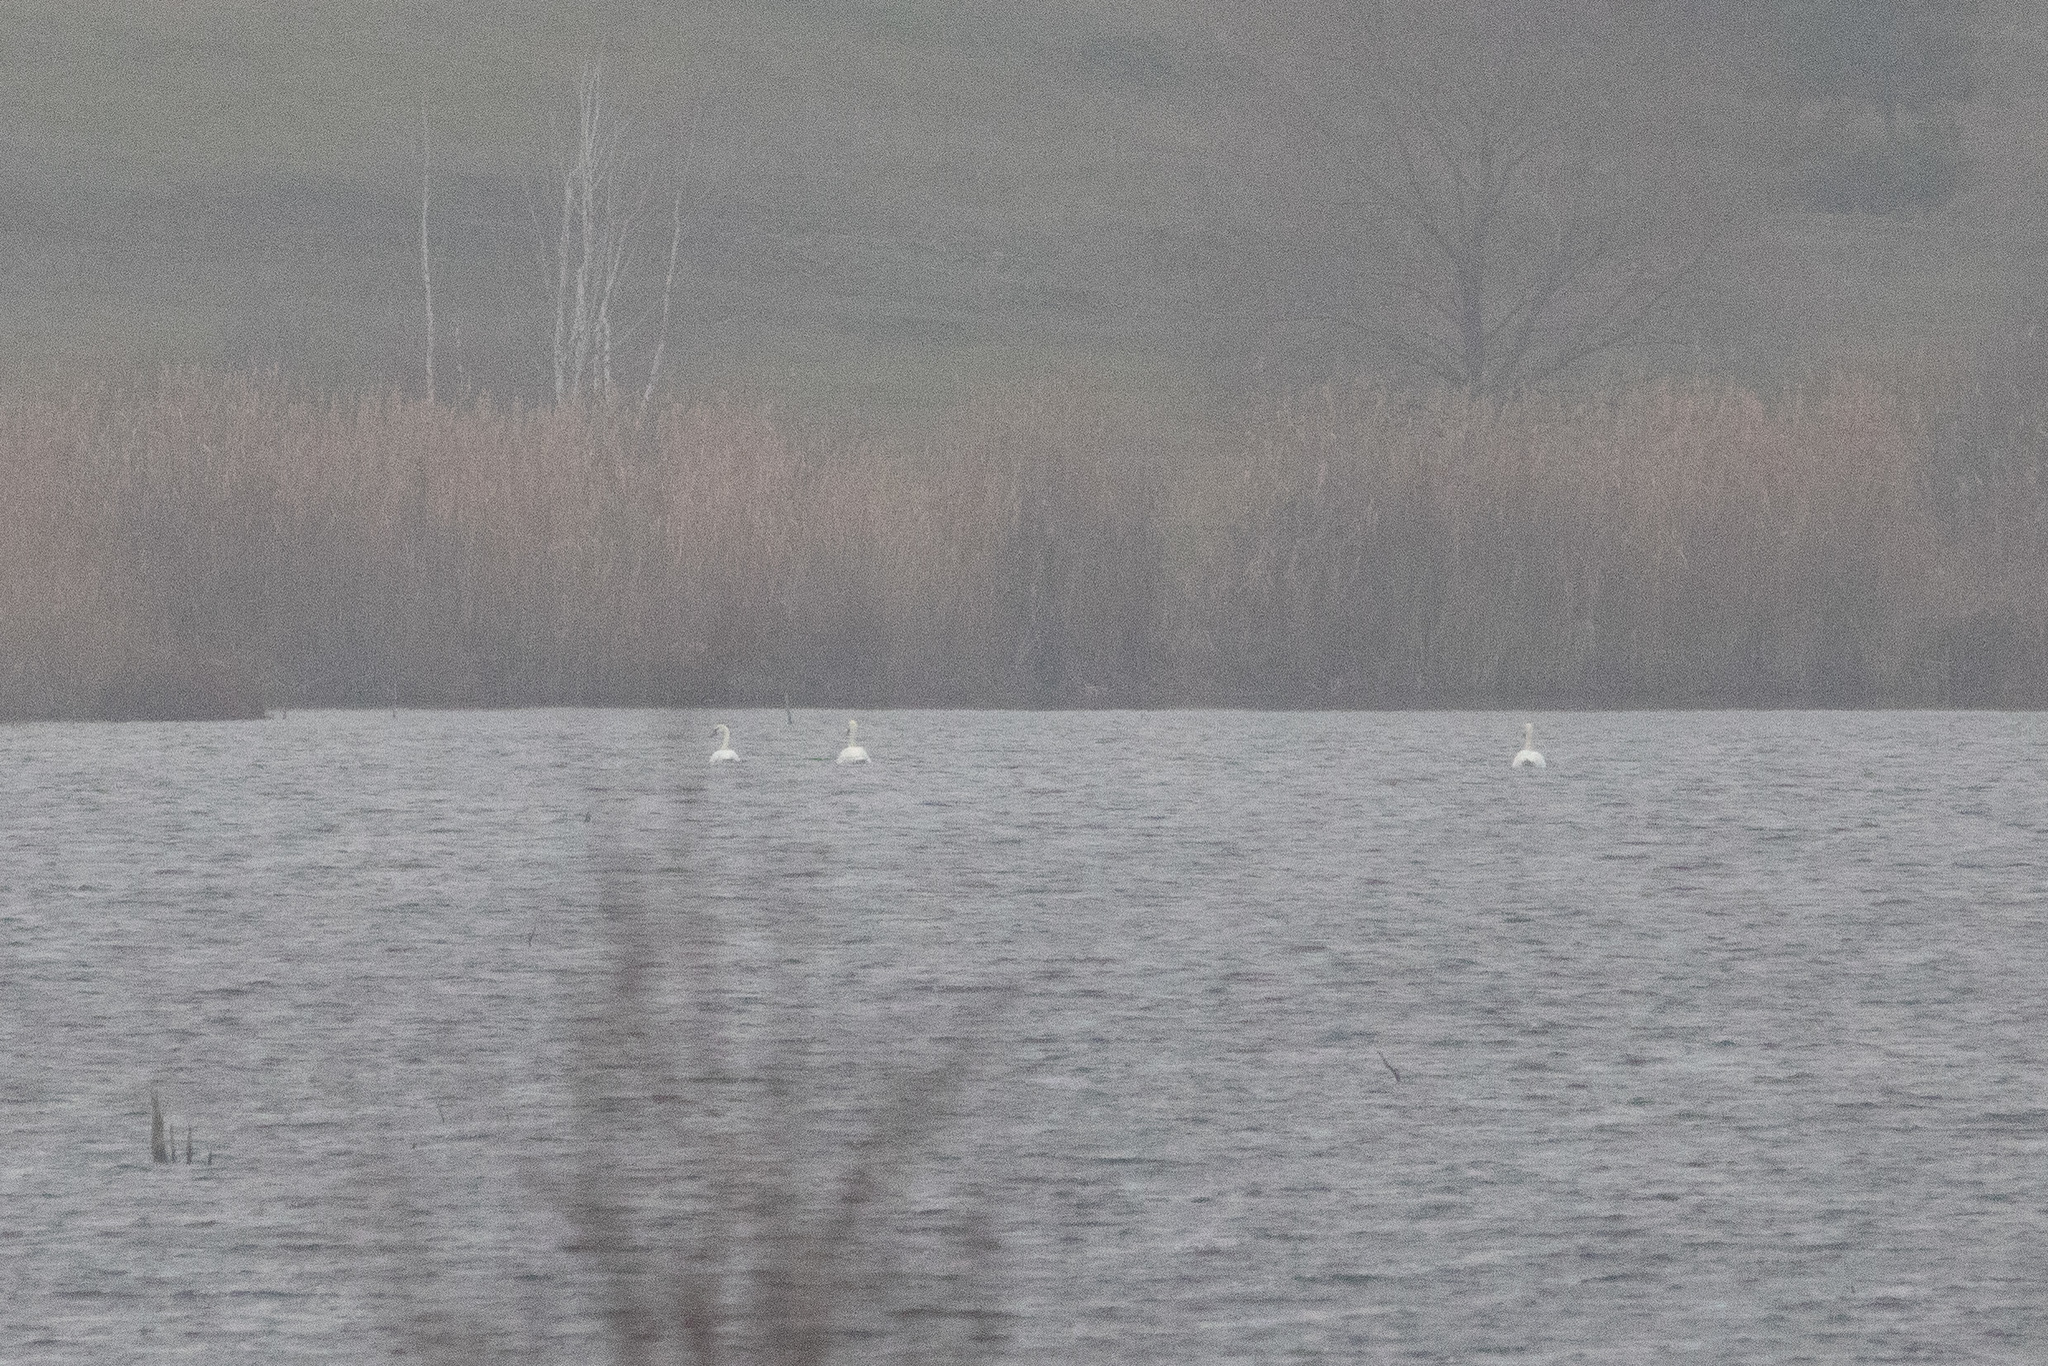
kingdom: Animalia
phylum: Chordata
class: Aves
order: Anseriformes
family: Anatidae
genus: Cygnus
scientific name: Cygnus olor
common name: Mute swan
